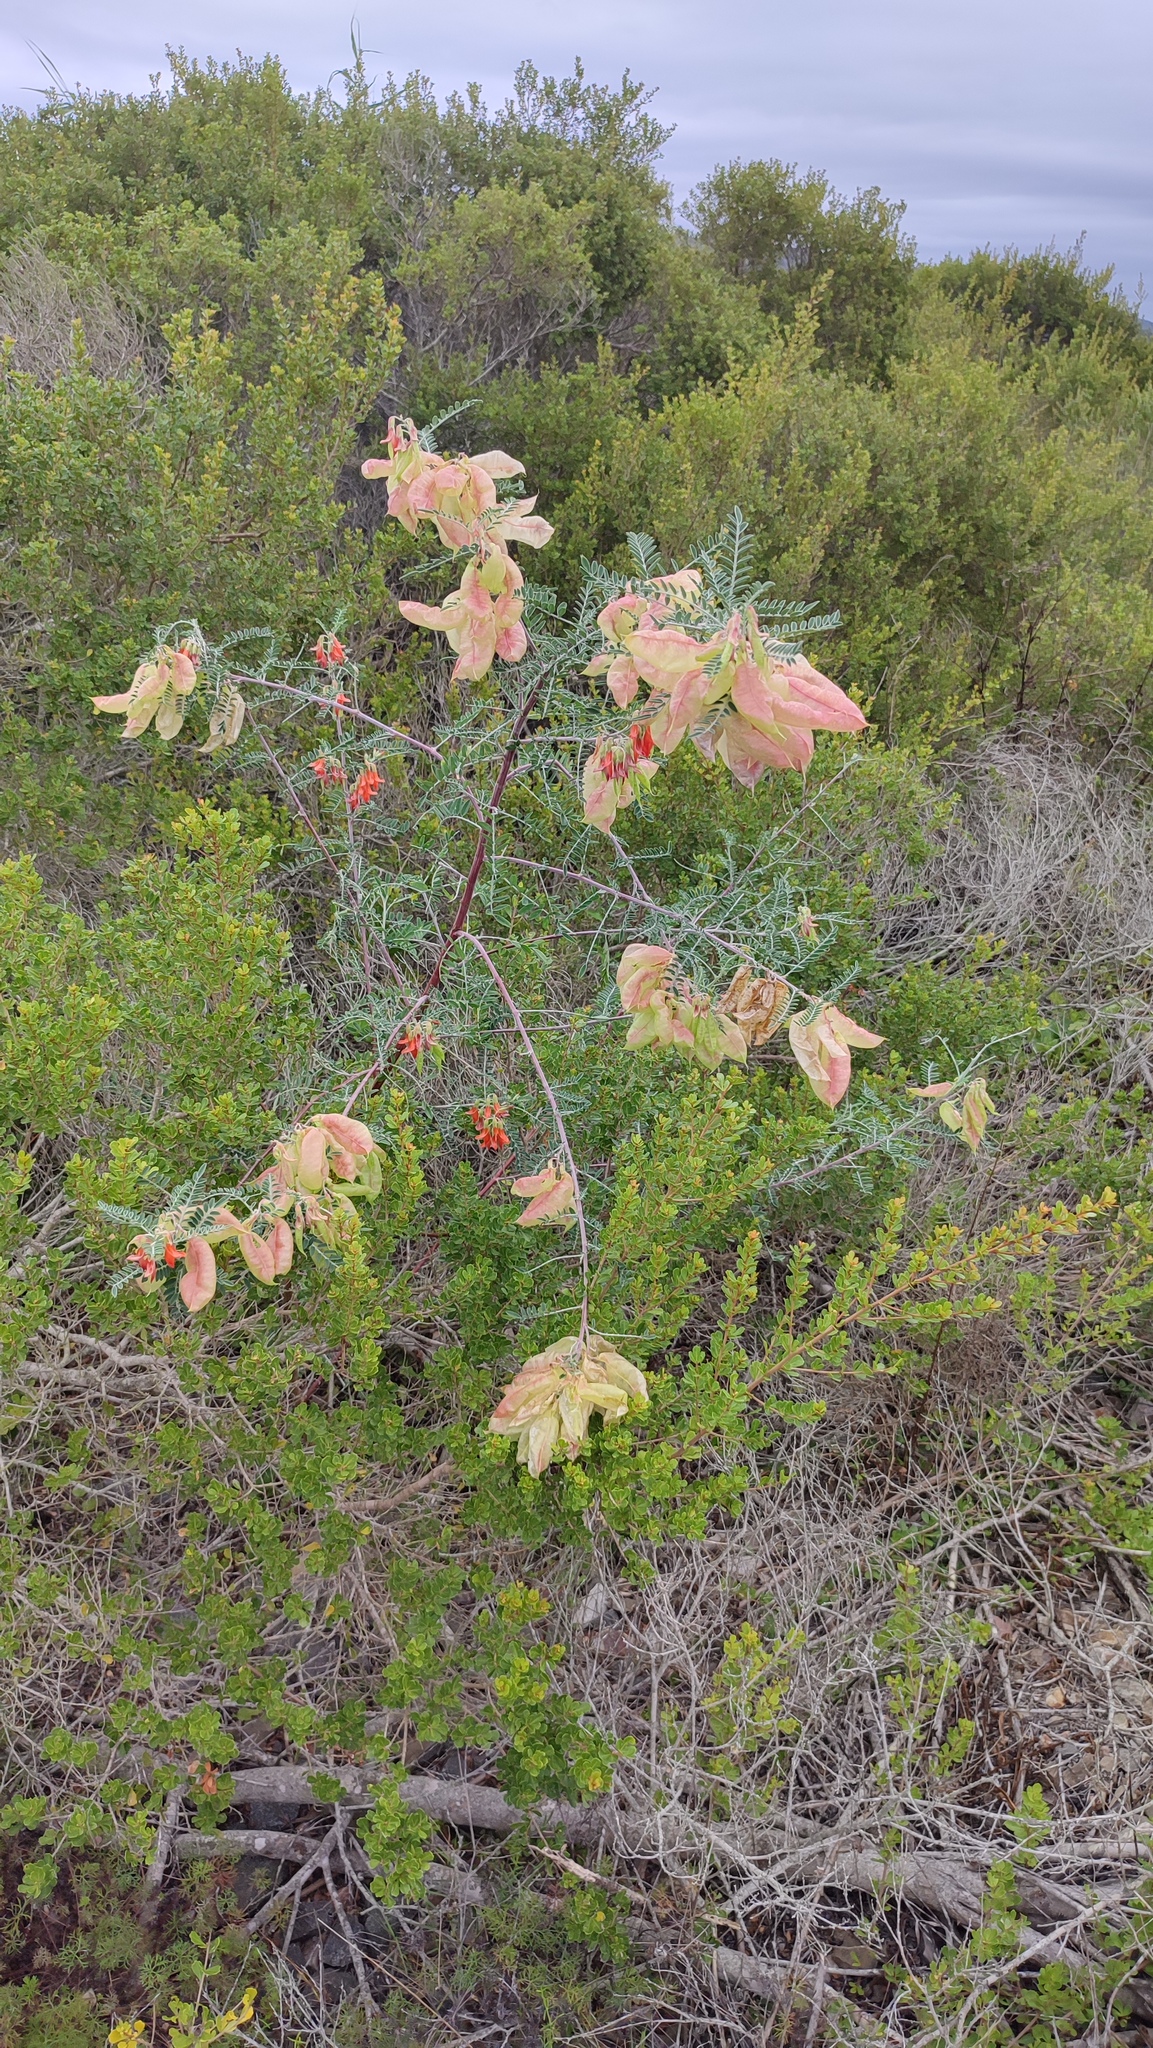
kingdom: Plantae
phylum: Tracheophyta
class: Magnoliopsida
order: Fabales
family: Fabaceae
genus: Lessertia
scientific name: Lessertia frutescens
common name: Balloon-pea
